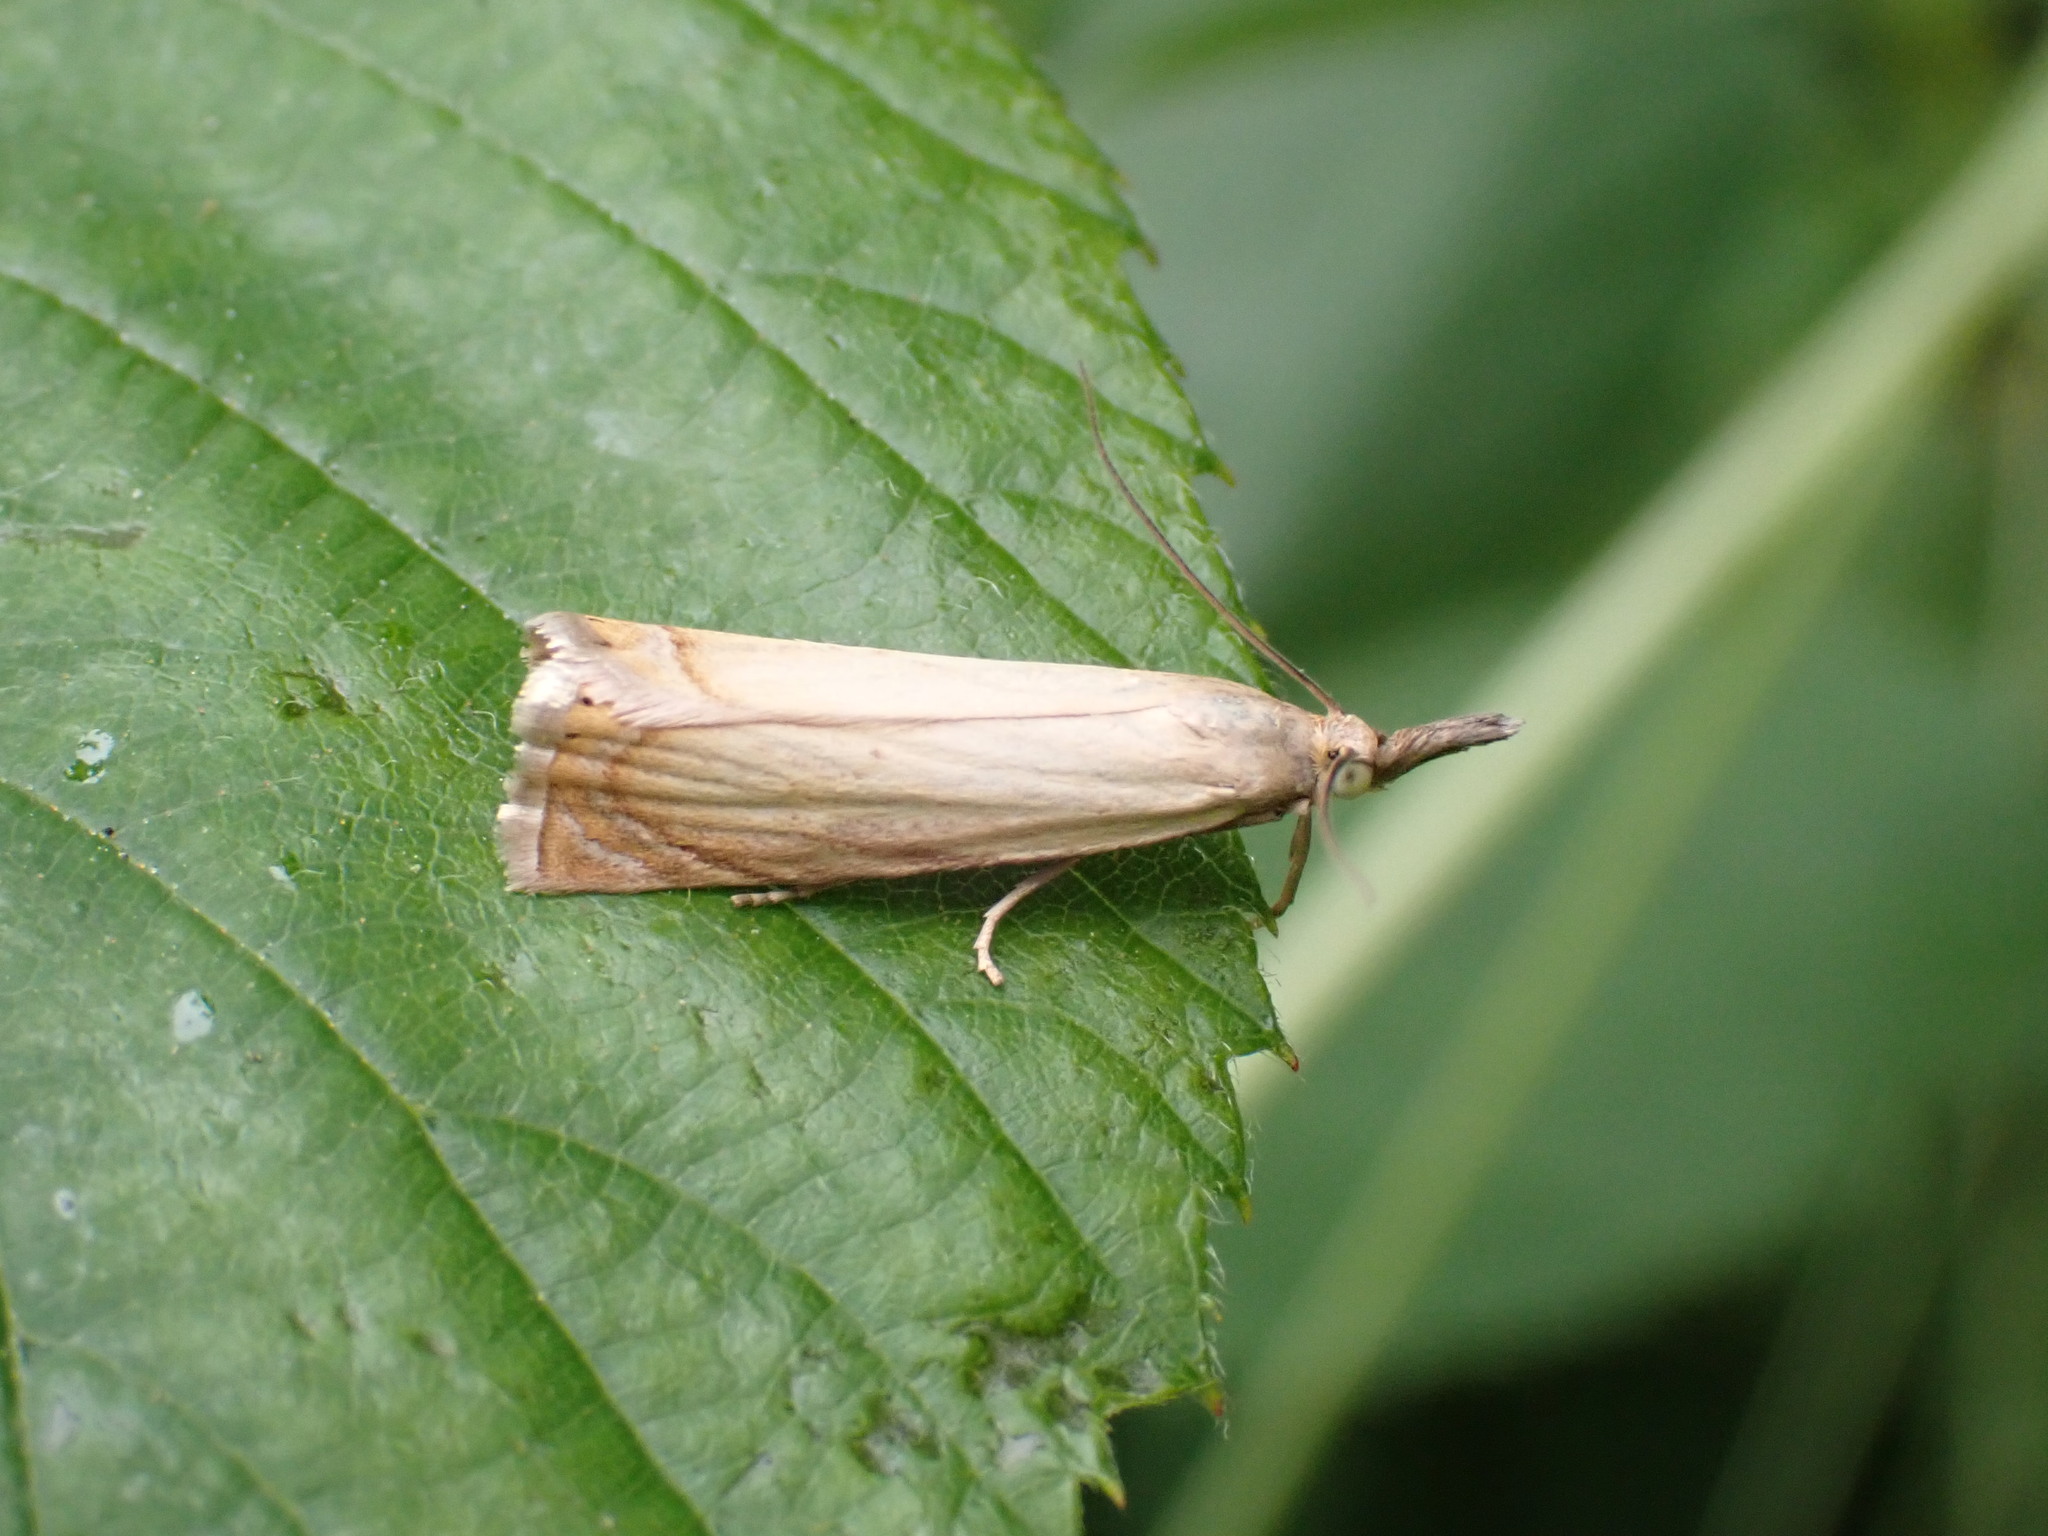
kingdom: Animalia
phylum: Arthropoda
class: Insecta
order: Lepidoptera
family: Crambidae
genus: Chrysoteuchia
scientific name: Chrysoteuchia culmella
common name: Garden grass-veneer
